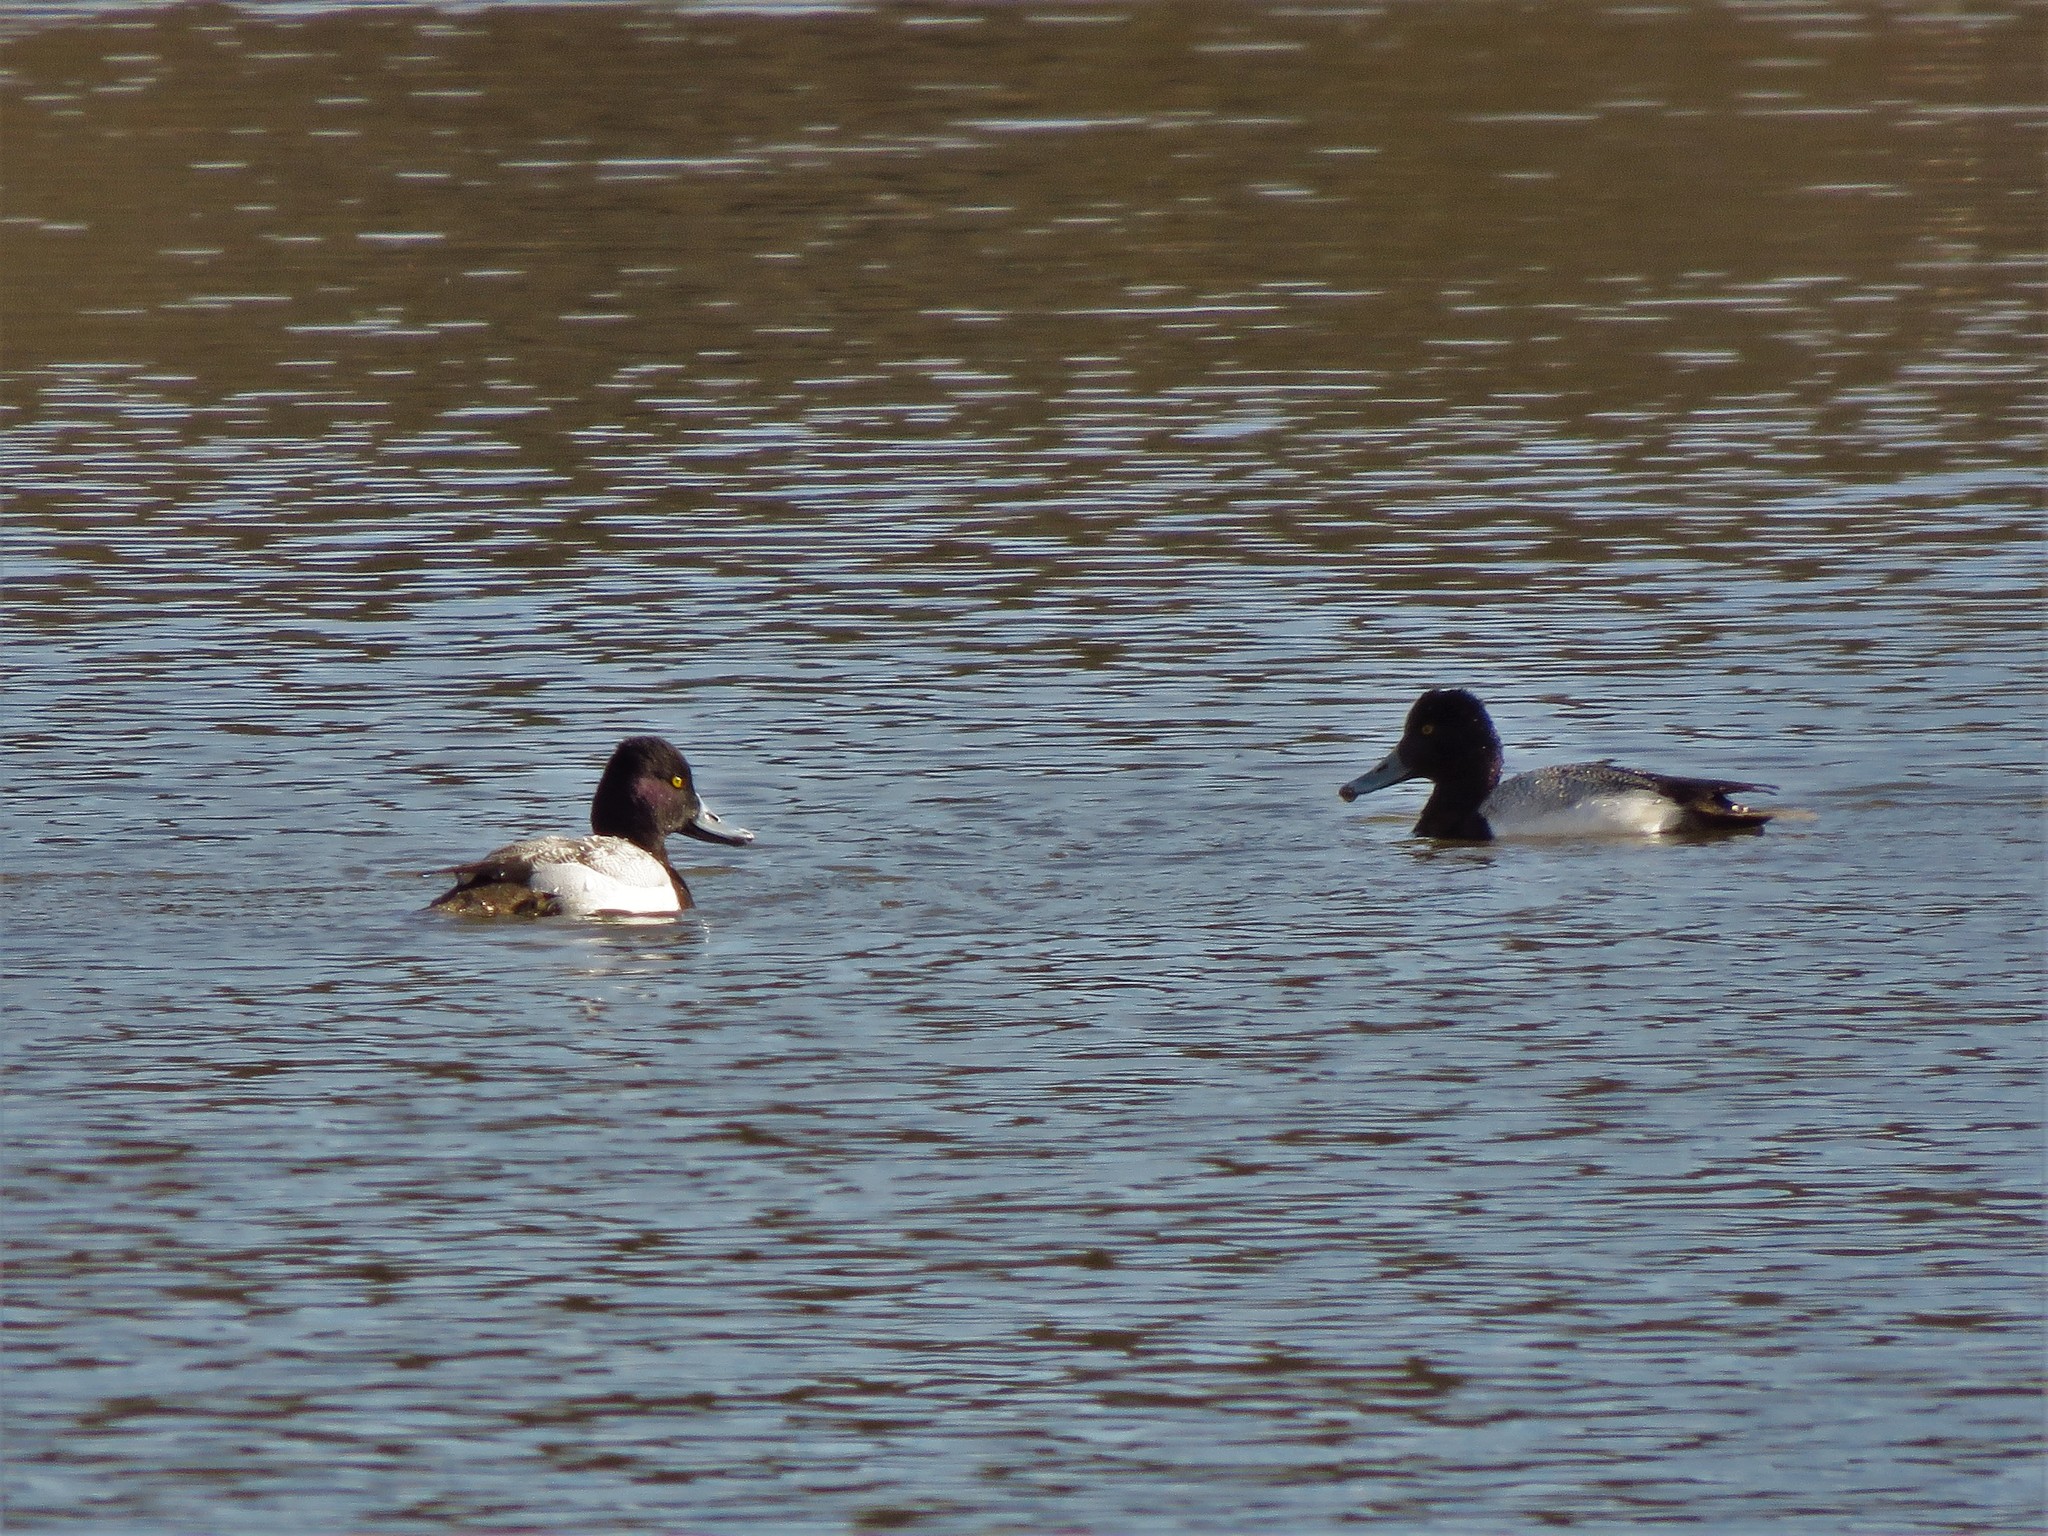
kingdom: Animalia
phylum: Chordata
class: Aves
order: Anseriformes
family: Anatidae
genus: Aythya
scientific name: Aythya affinis
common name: Lesser scaup
